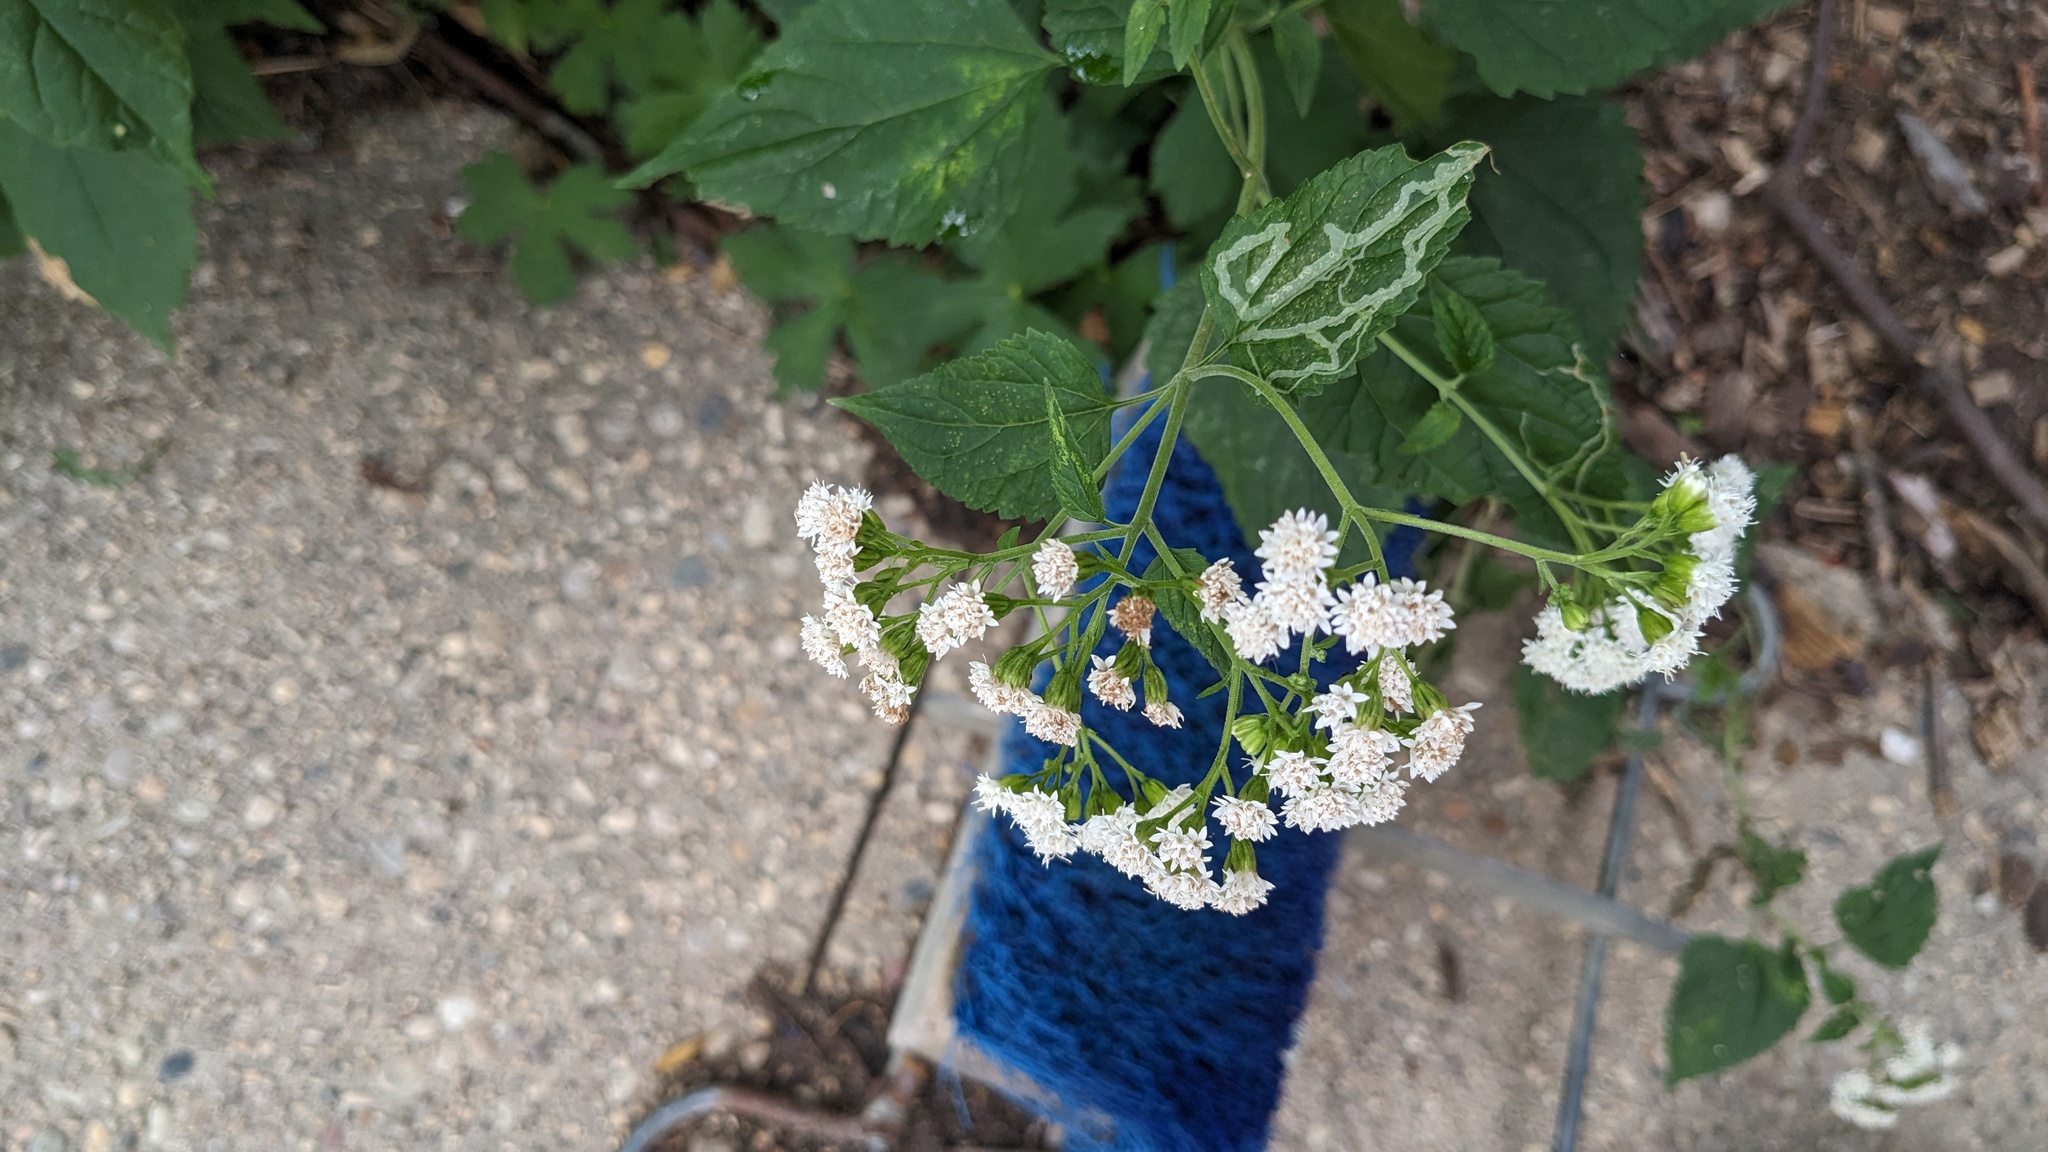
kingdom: Plantae
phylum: Tracheophyta
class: Magnoliopsida
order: Asterales
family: Asteraceae
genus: Ageratina
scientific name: Ageratina altissima
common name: White snakeroot
